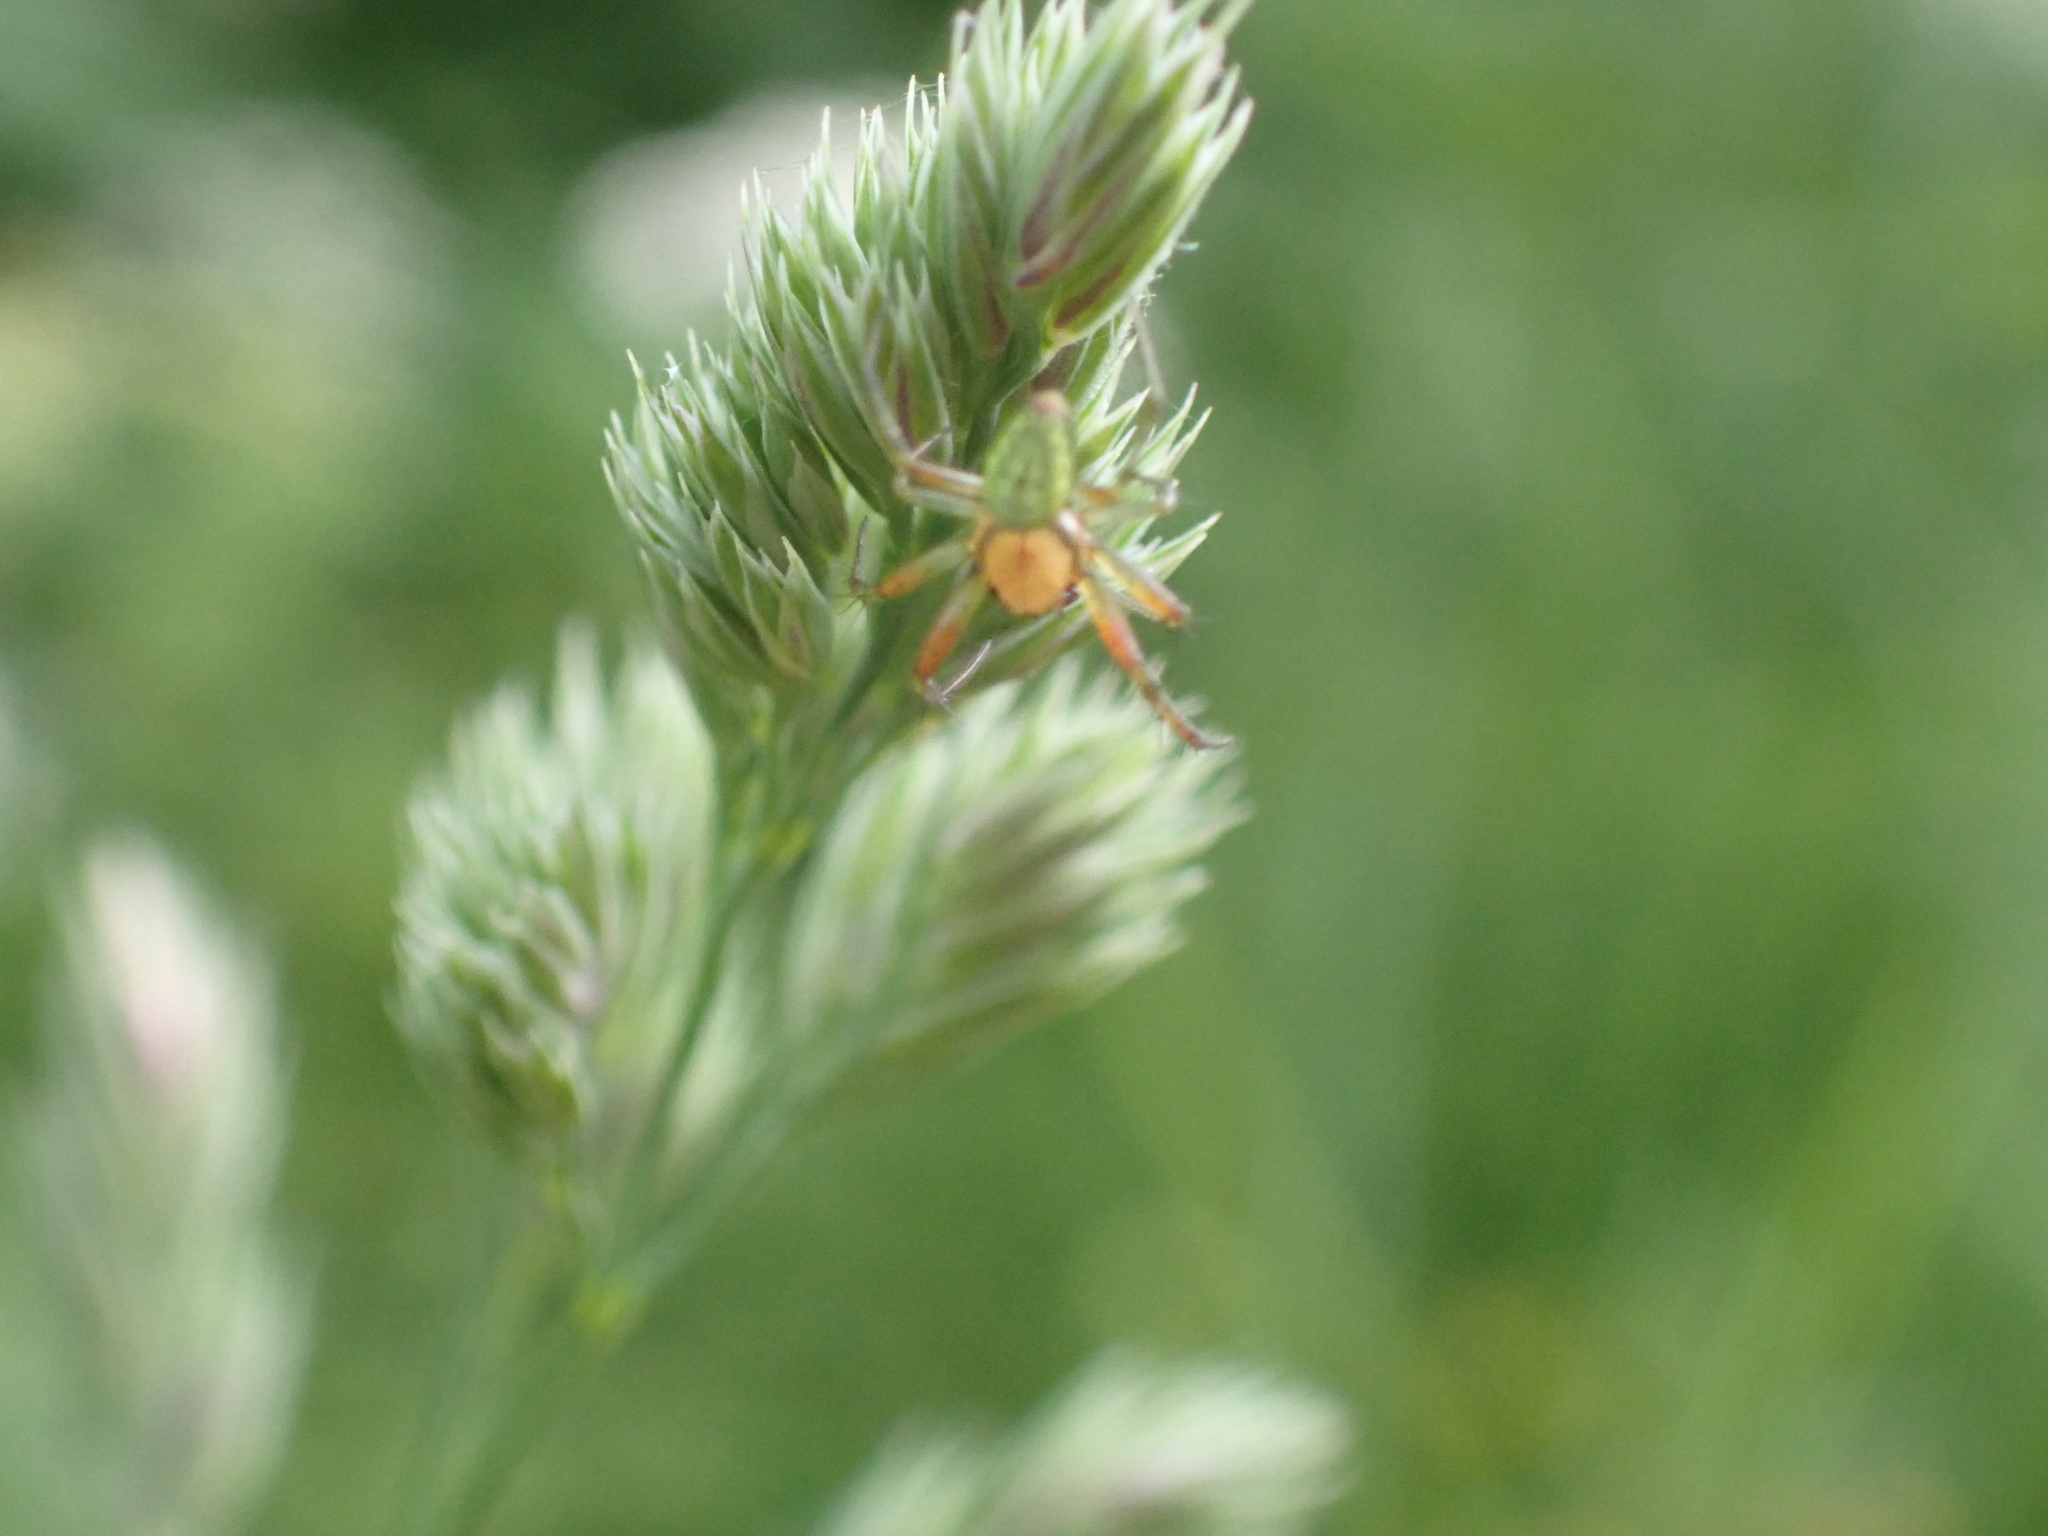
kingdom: Animalia
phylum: Arthropoda
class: Arachnida
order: Araneae
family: Araneidae
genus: Araniella
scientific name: Araniella
